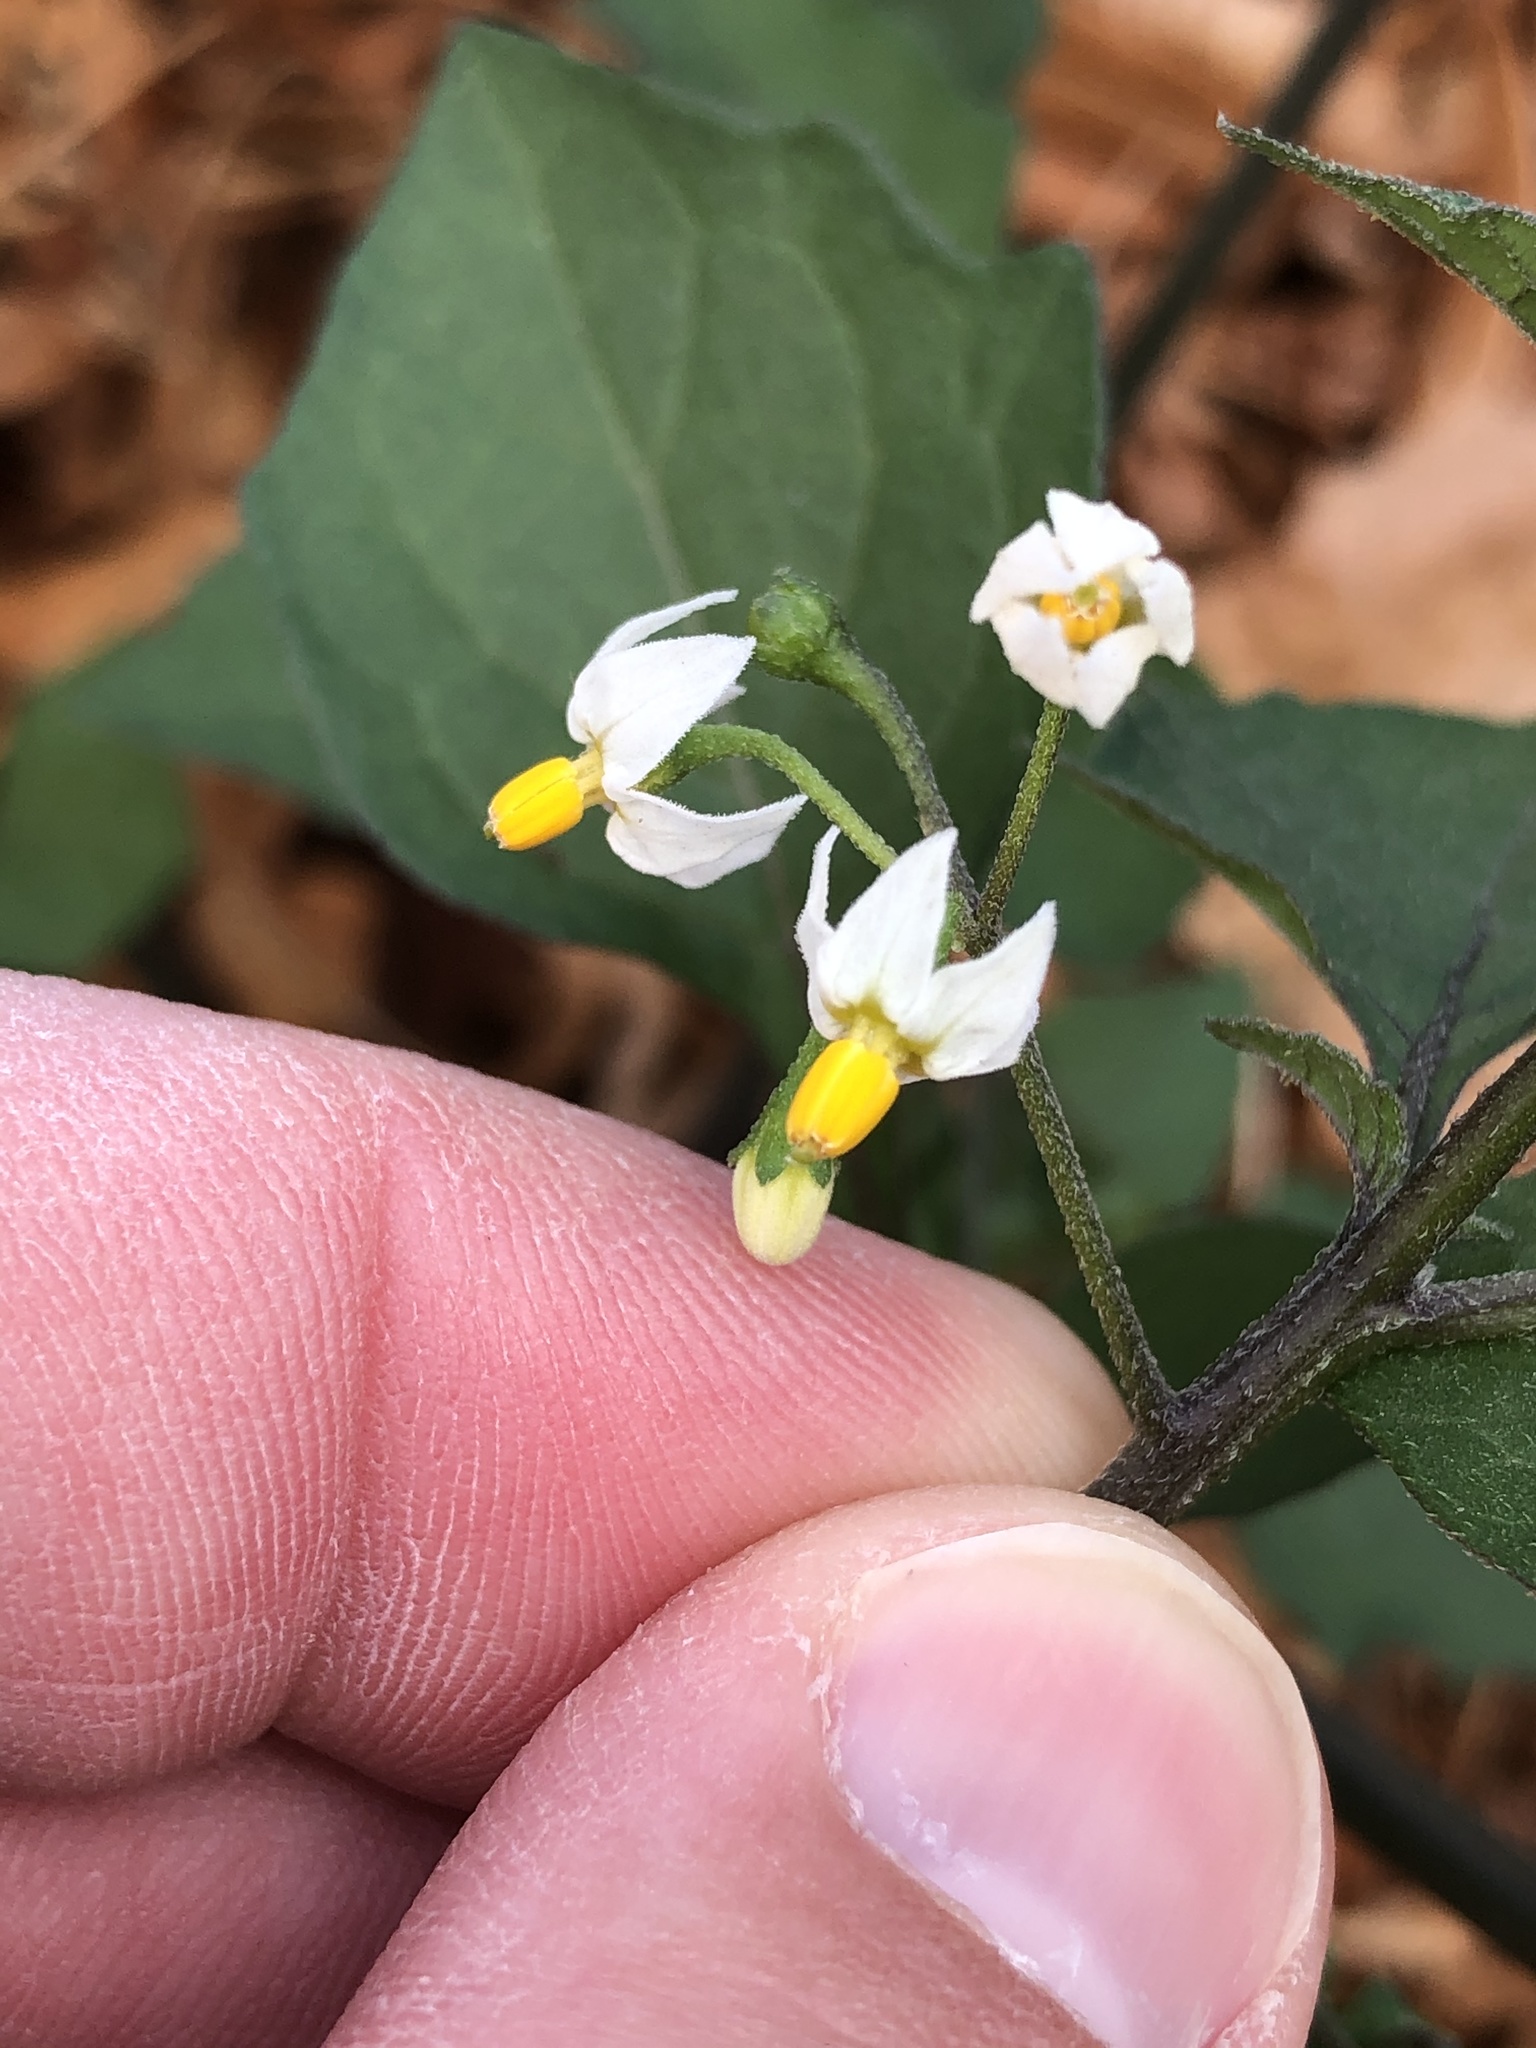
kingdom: Plantae
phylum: Tracheophyta
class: Magnoliopsida
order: Solanales
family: Solanaceae
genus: Solanum
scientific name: Solanum nigrum
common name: Black nightshade
